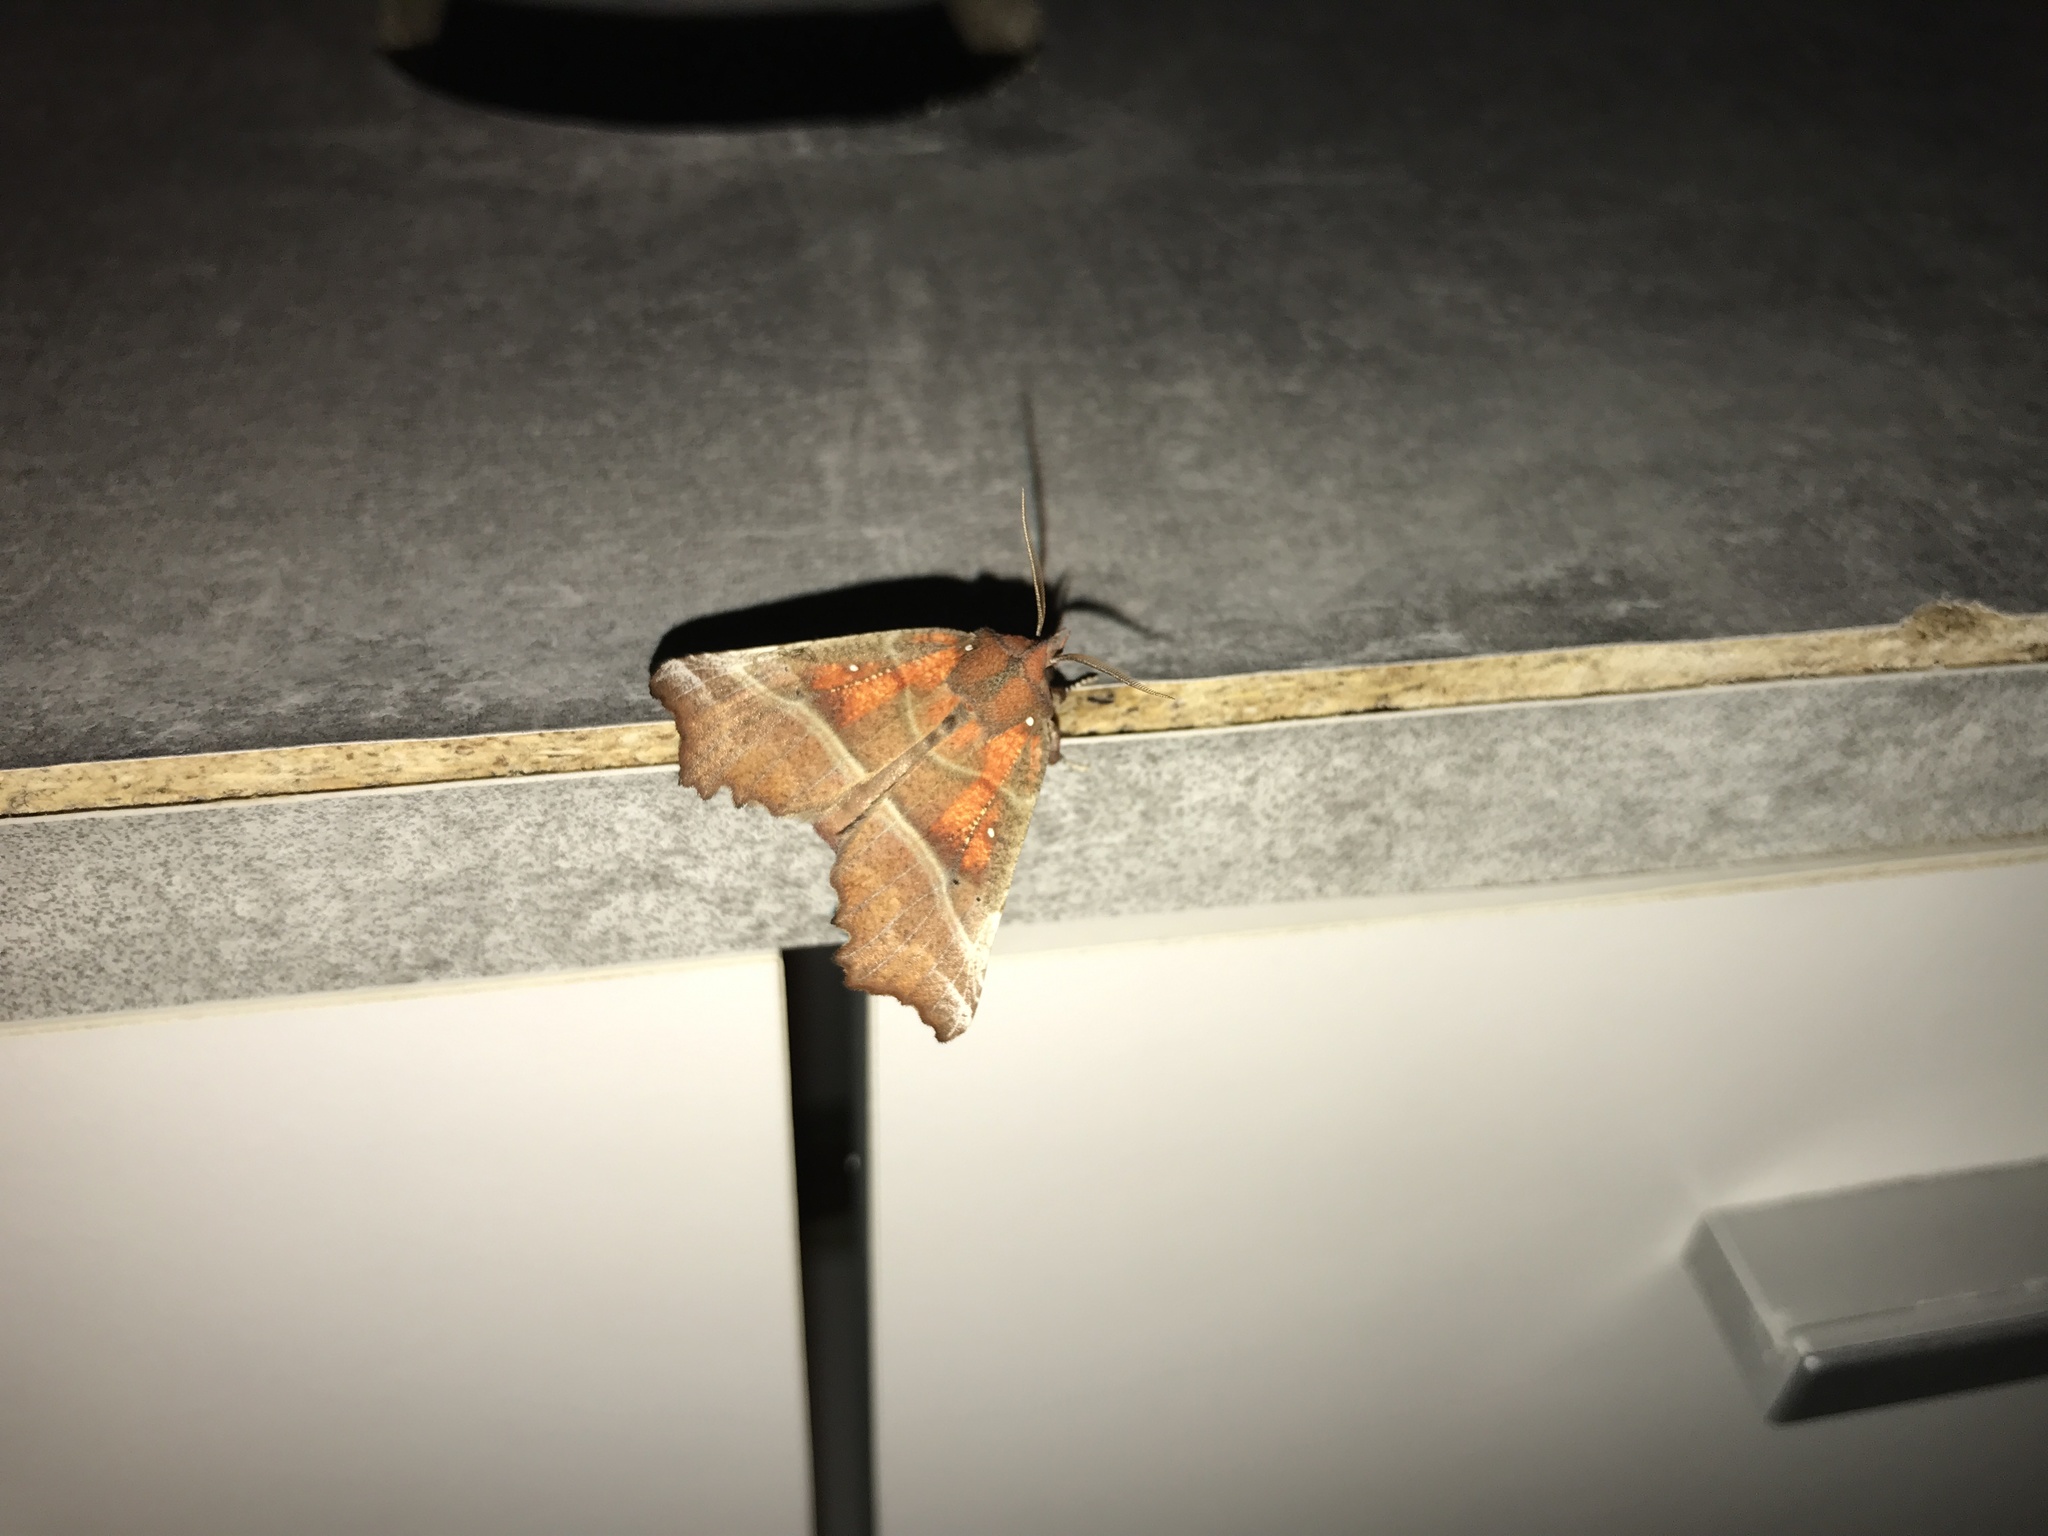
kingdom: Animalia
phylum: Arthropoda
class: Insecta
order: Lepidoptera
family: Erebidae
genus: Scoliopteryx
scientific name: Scoliopteryx libatrix
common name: Herald
